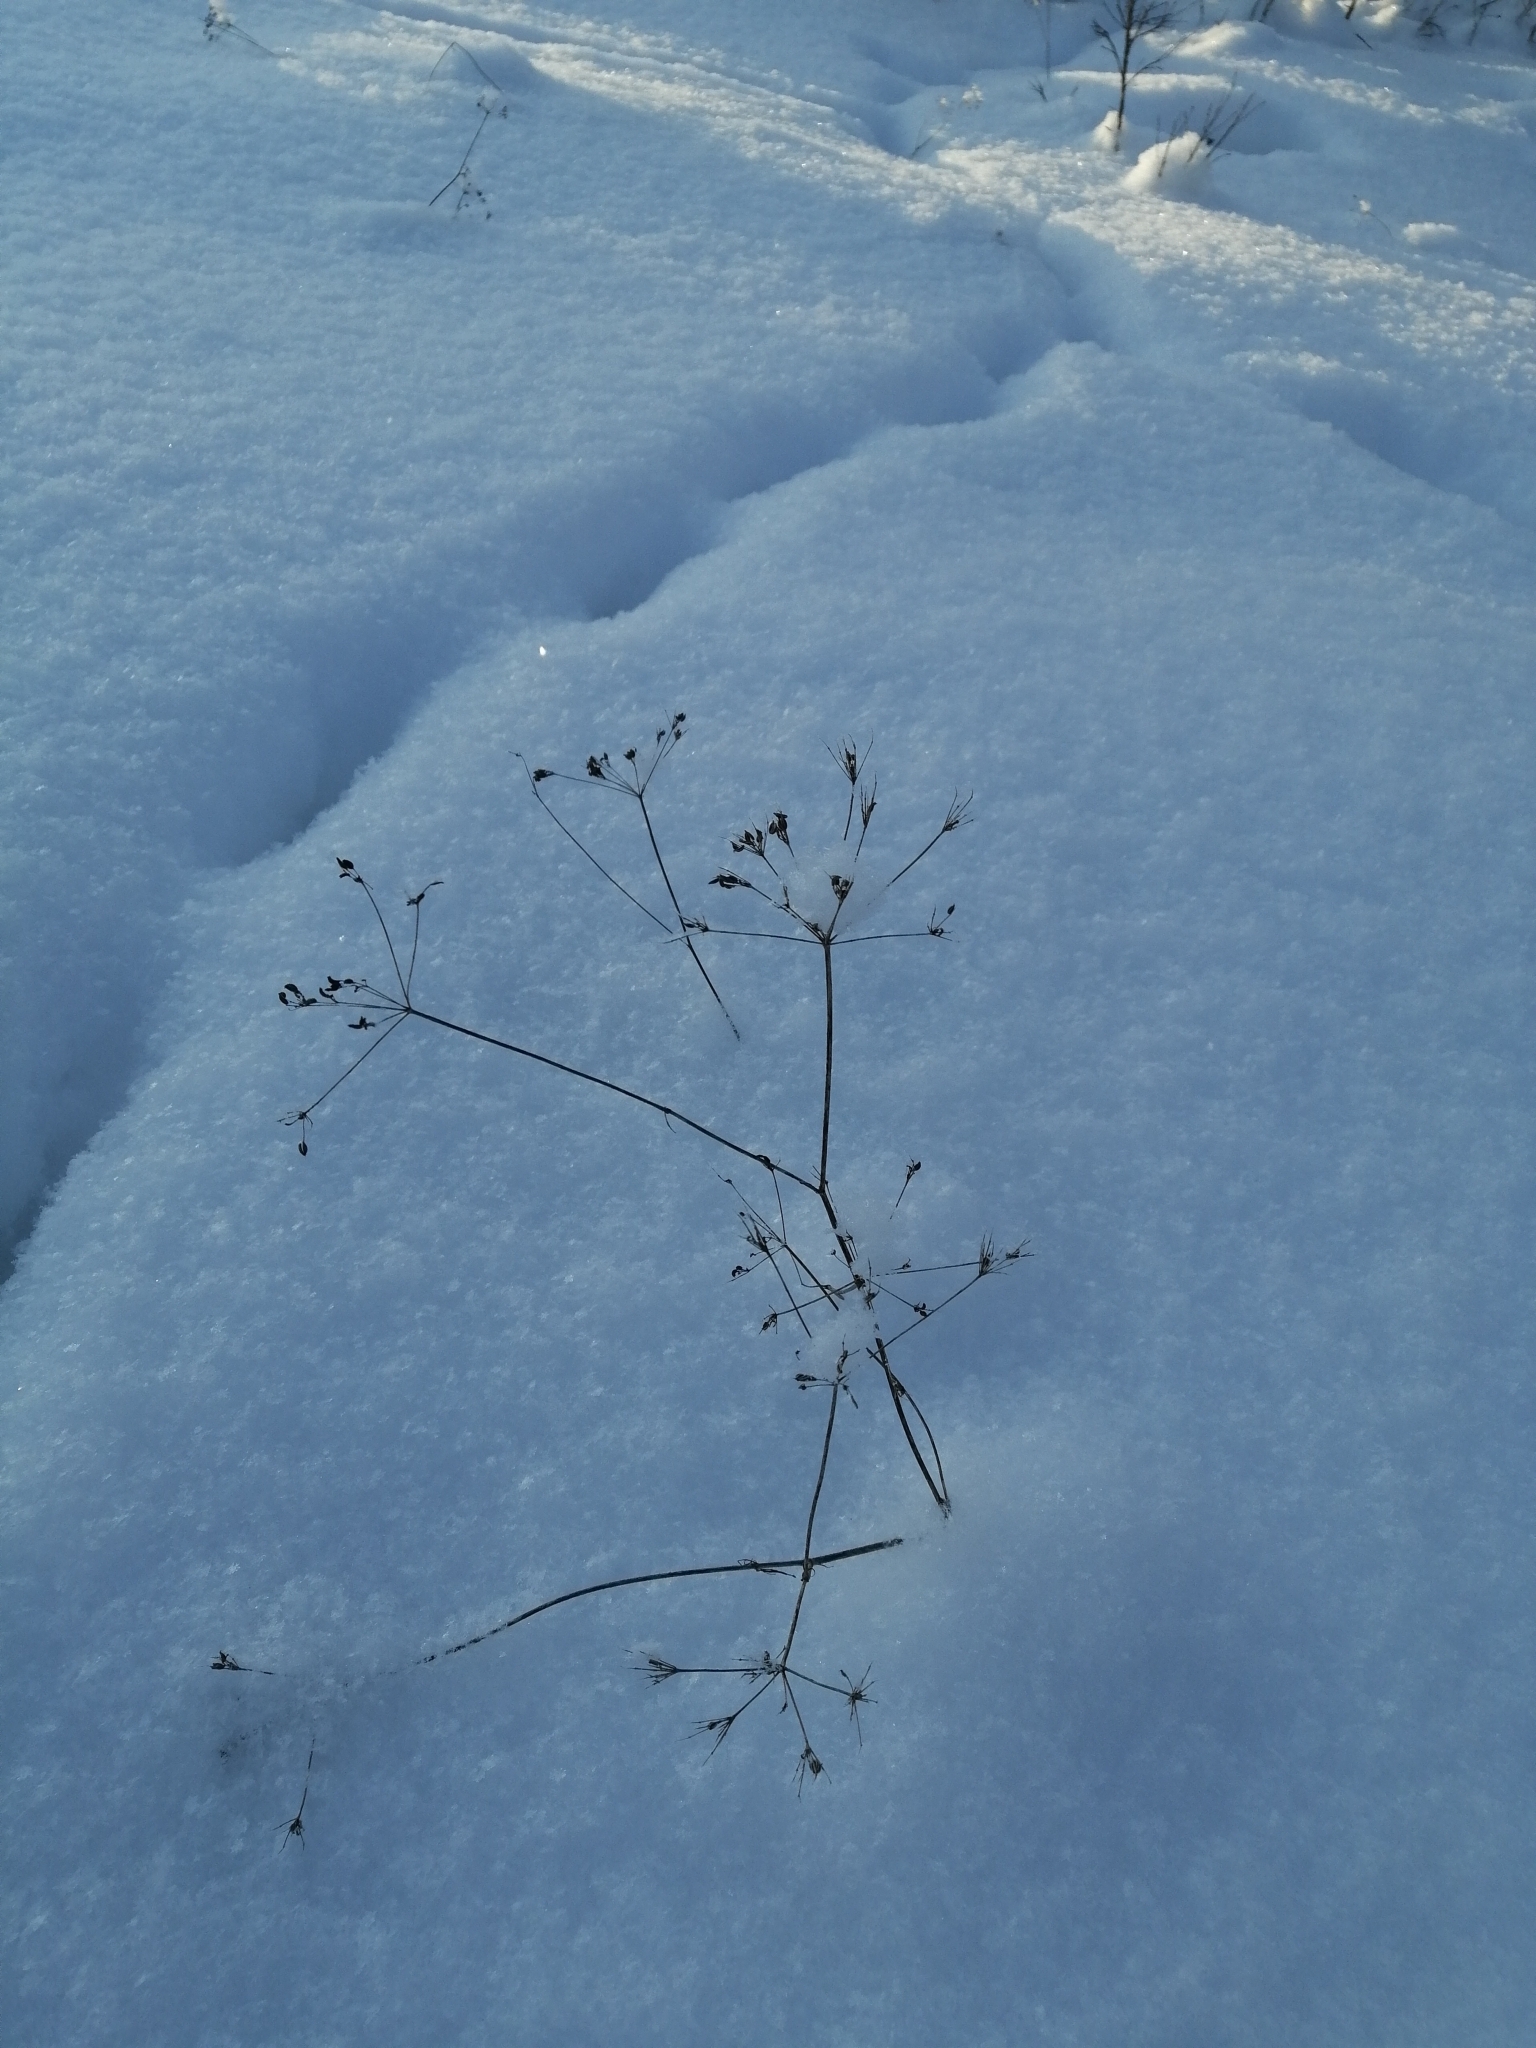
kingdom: Plantae
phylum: Tracheophyta
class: Magnoliopsida
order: Apiales
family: Apiaceae
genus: Carum
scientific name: Carum carvi
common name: Caraway
